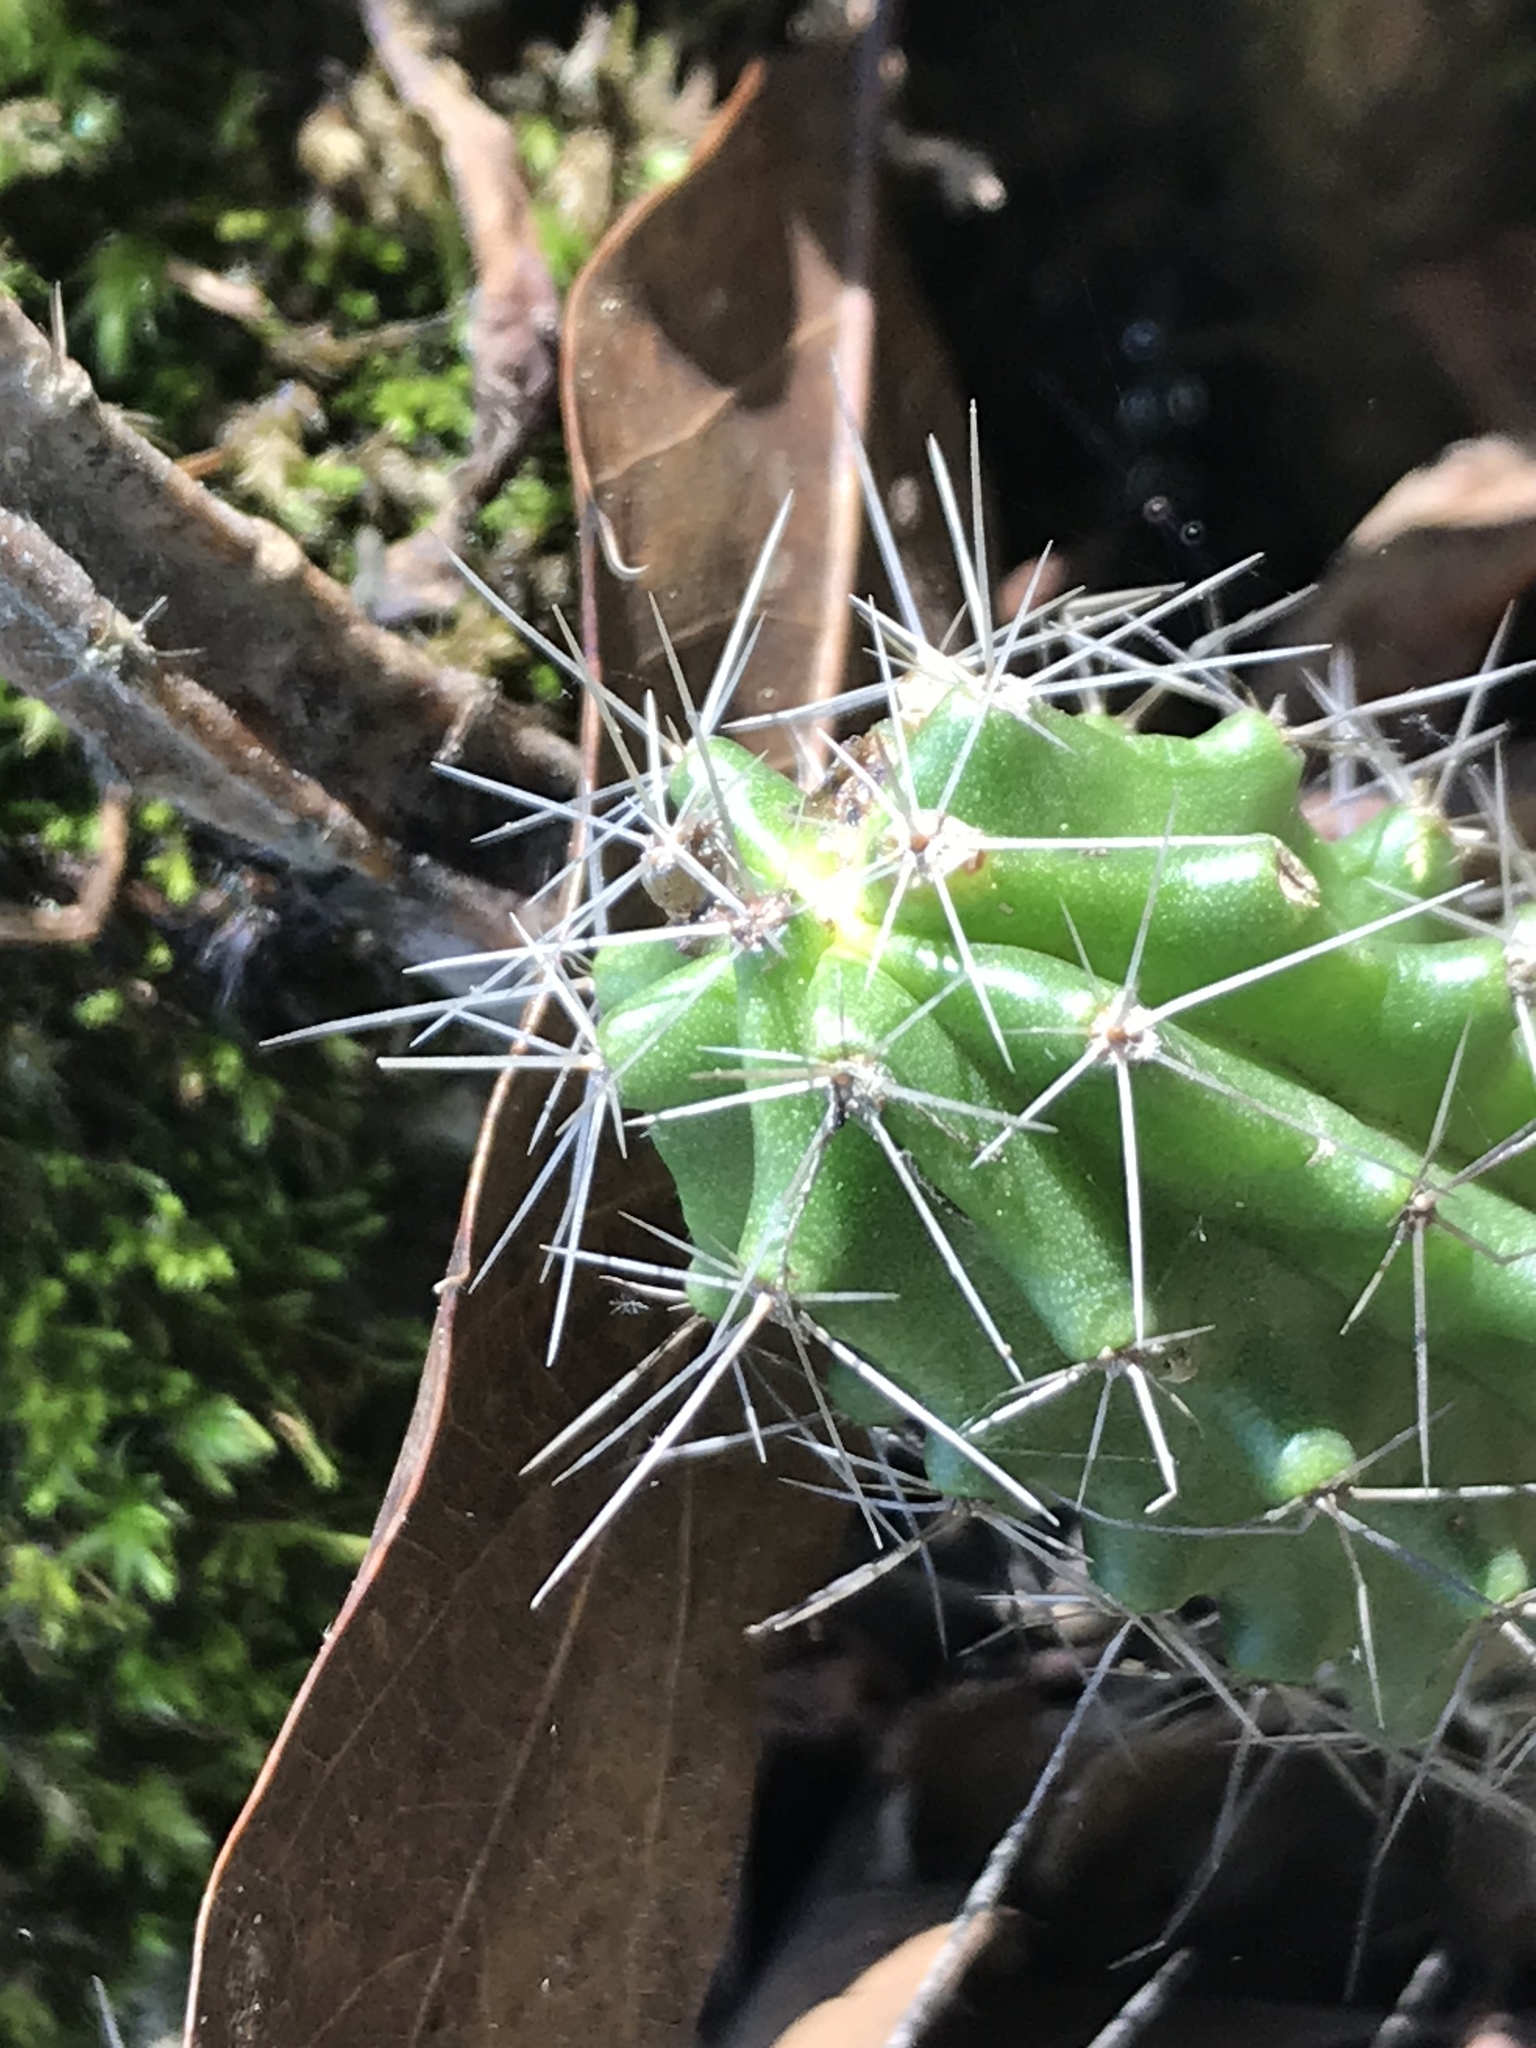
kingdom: Plantae
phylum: Tracheophyta
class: Magnoliopsida
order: Caryophyllales
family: Cactaceae
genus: Echinocereus
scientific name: Echinocereus viereckii
